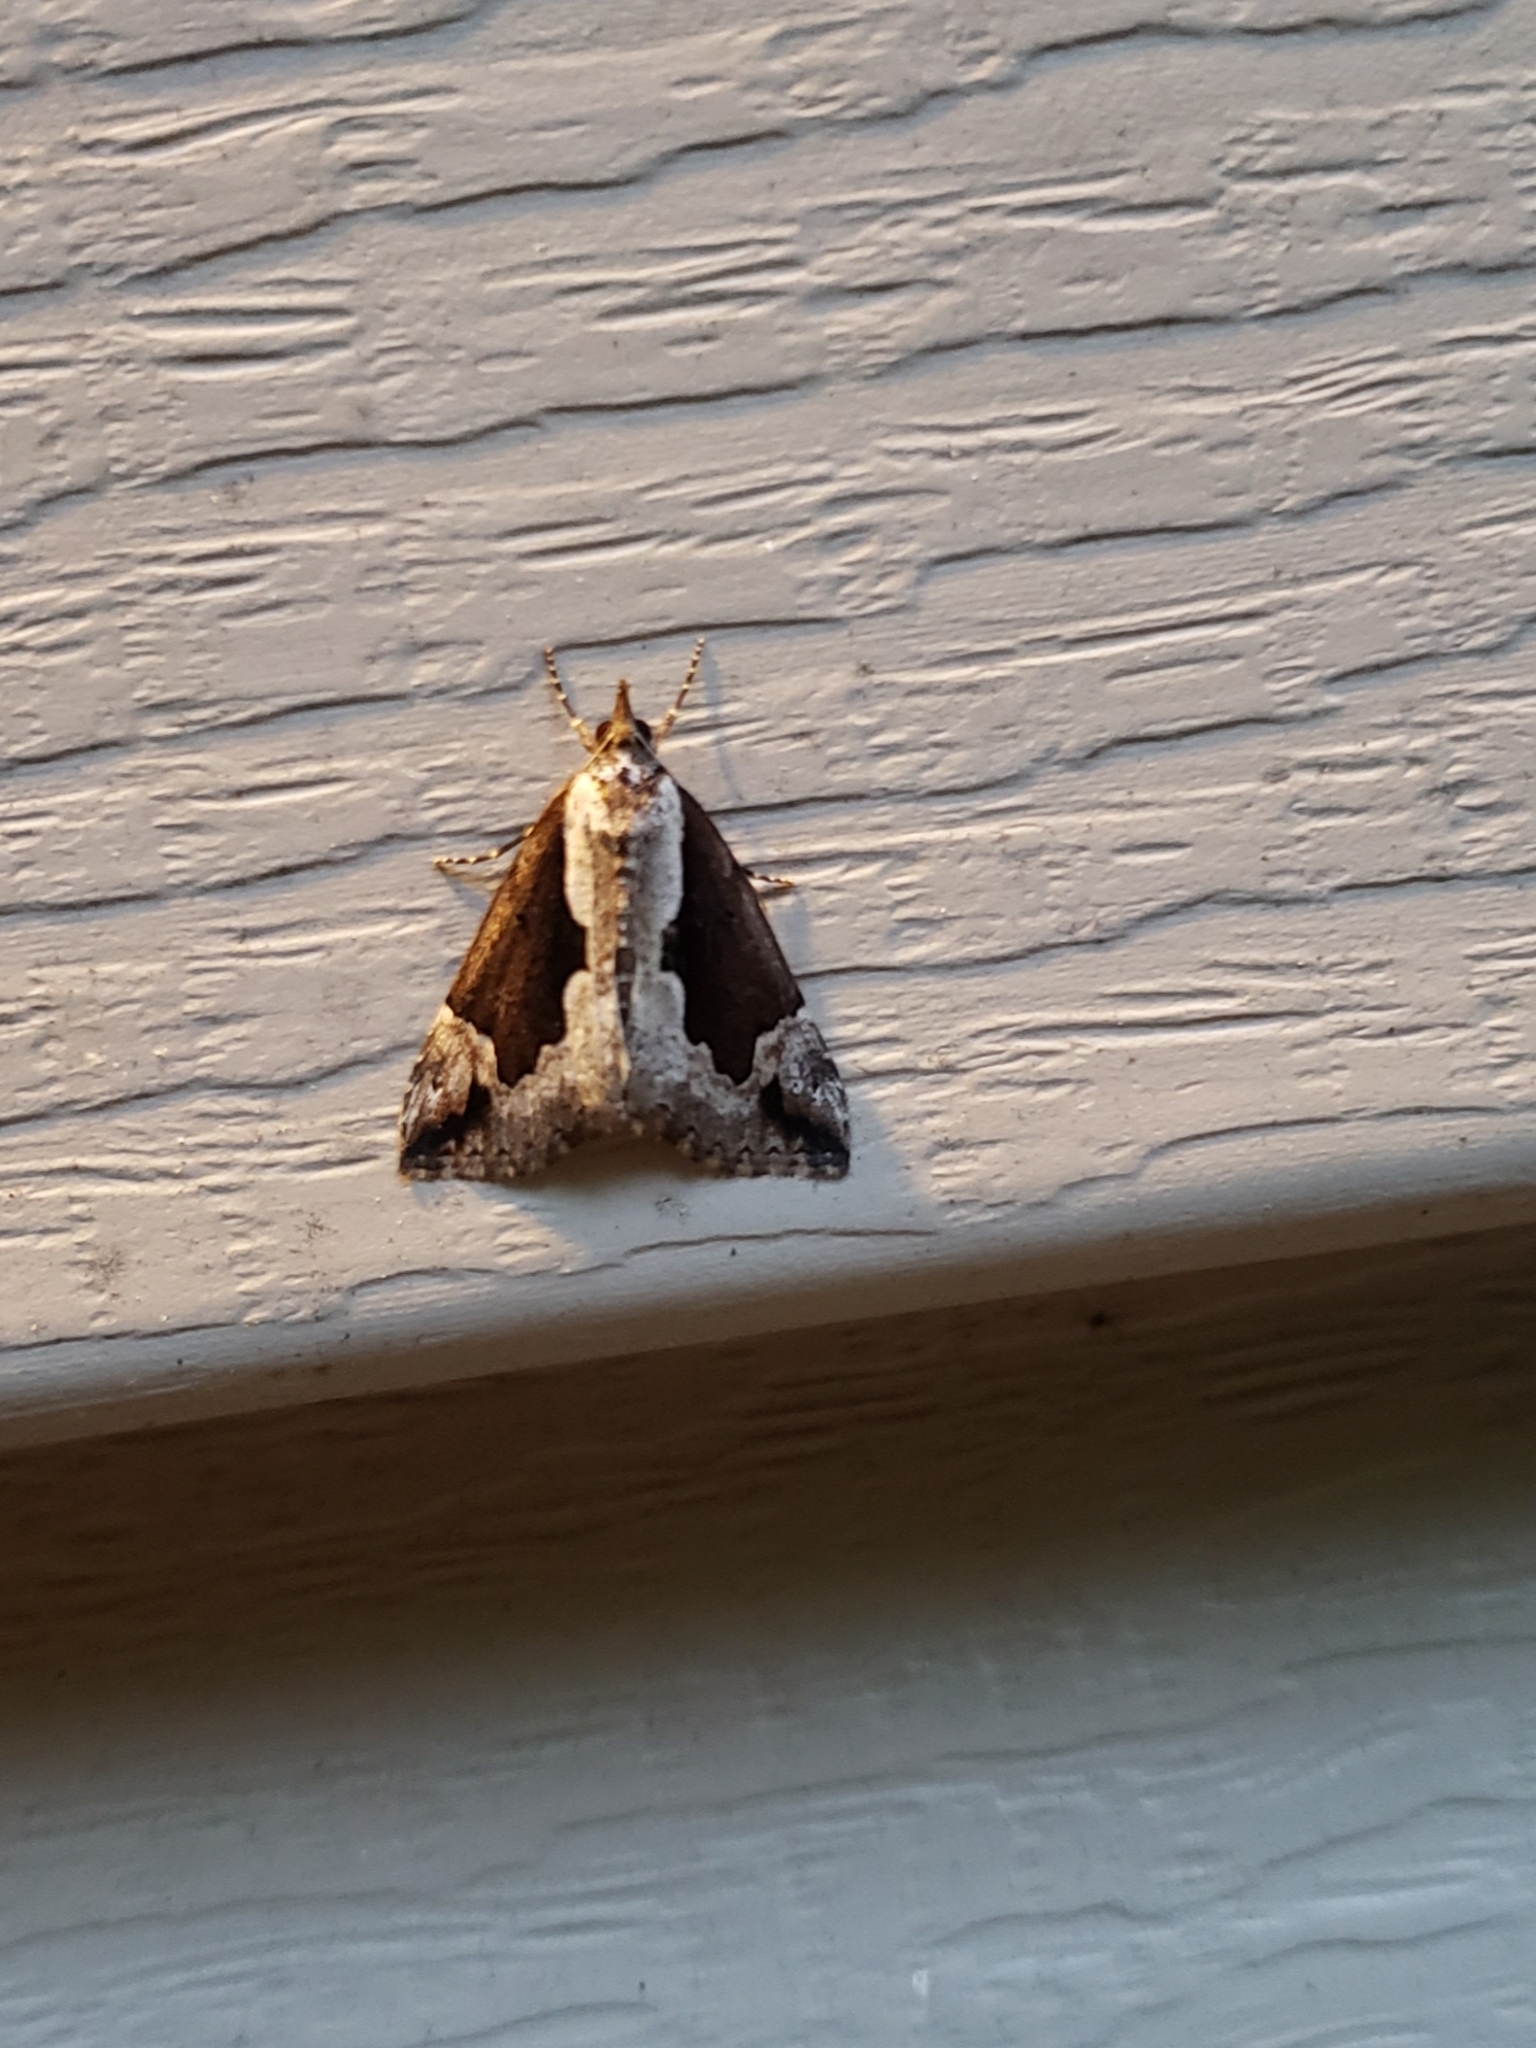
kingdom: Animalia
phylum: Arthropoda
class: Insecta
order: Lepidoptera
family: Erebidae
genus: Hypena
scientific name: Hypena baltimoralis
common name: Baltimore snout
